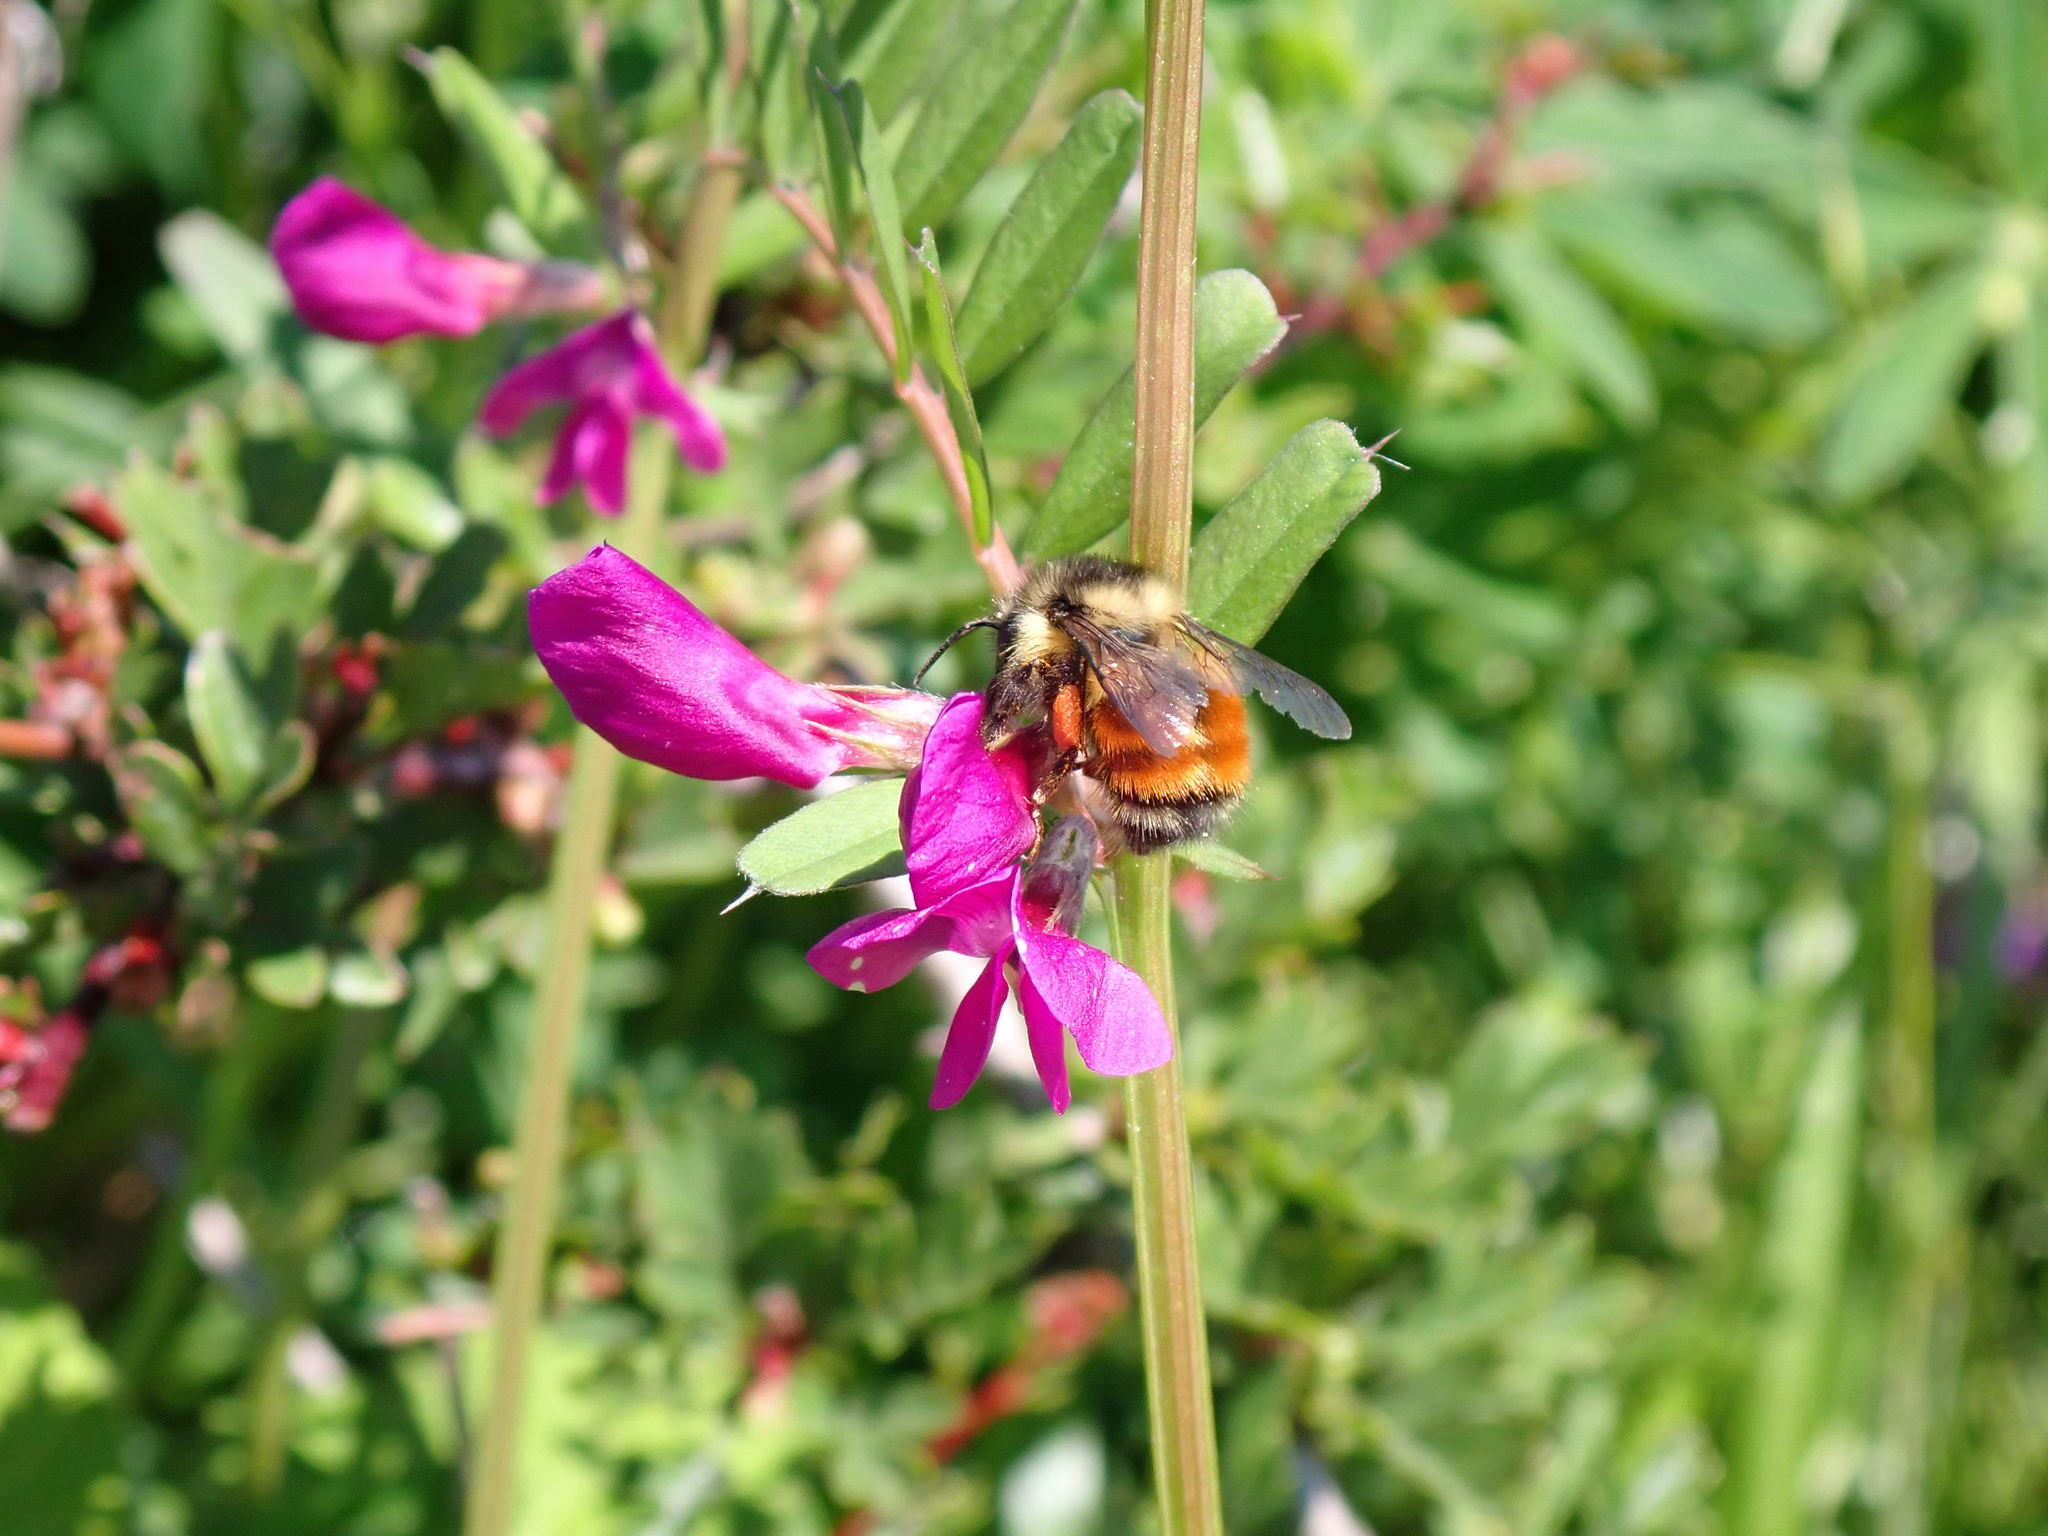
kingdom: Animalia
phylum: Arthropoda
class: Insecta
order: Hymenoptera
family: Apidae
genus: Bombus
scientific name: Bombus melanopygus
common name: Black tail bumble bee
